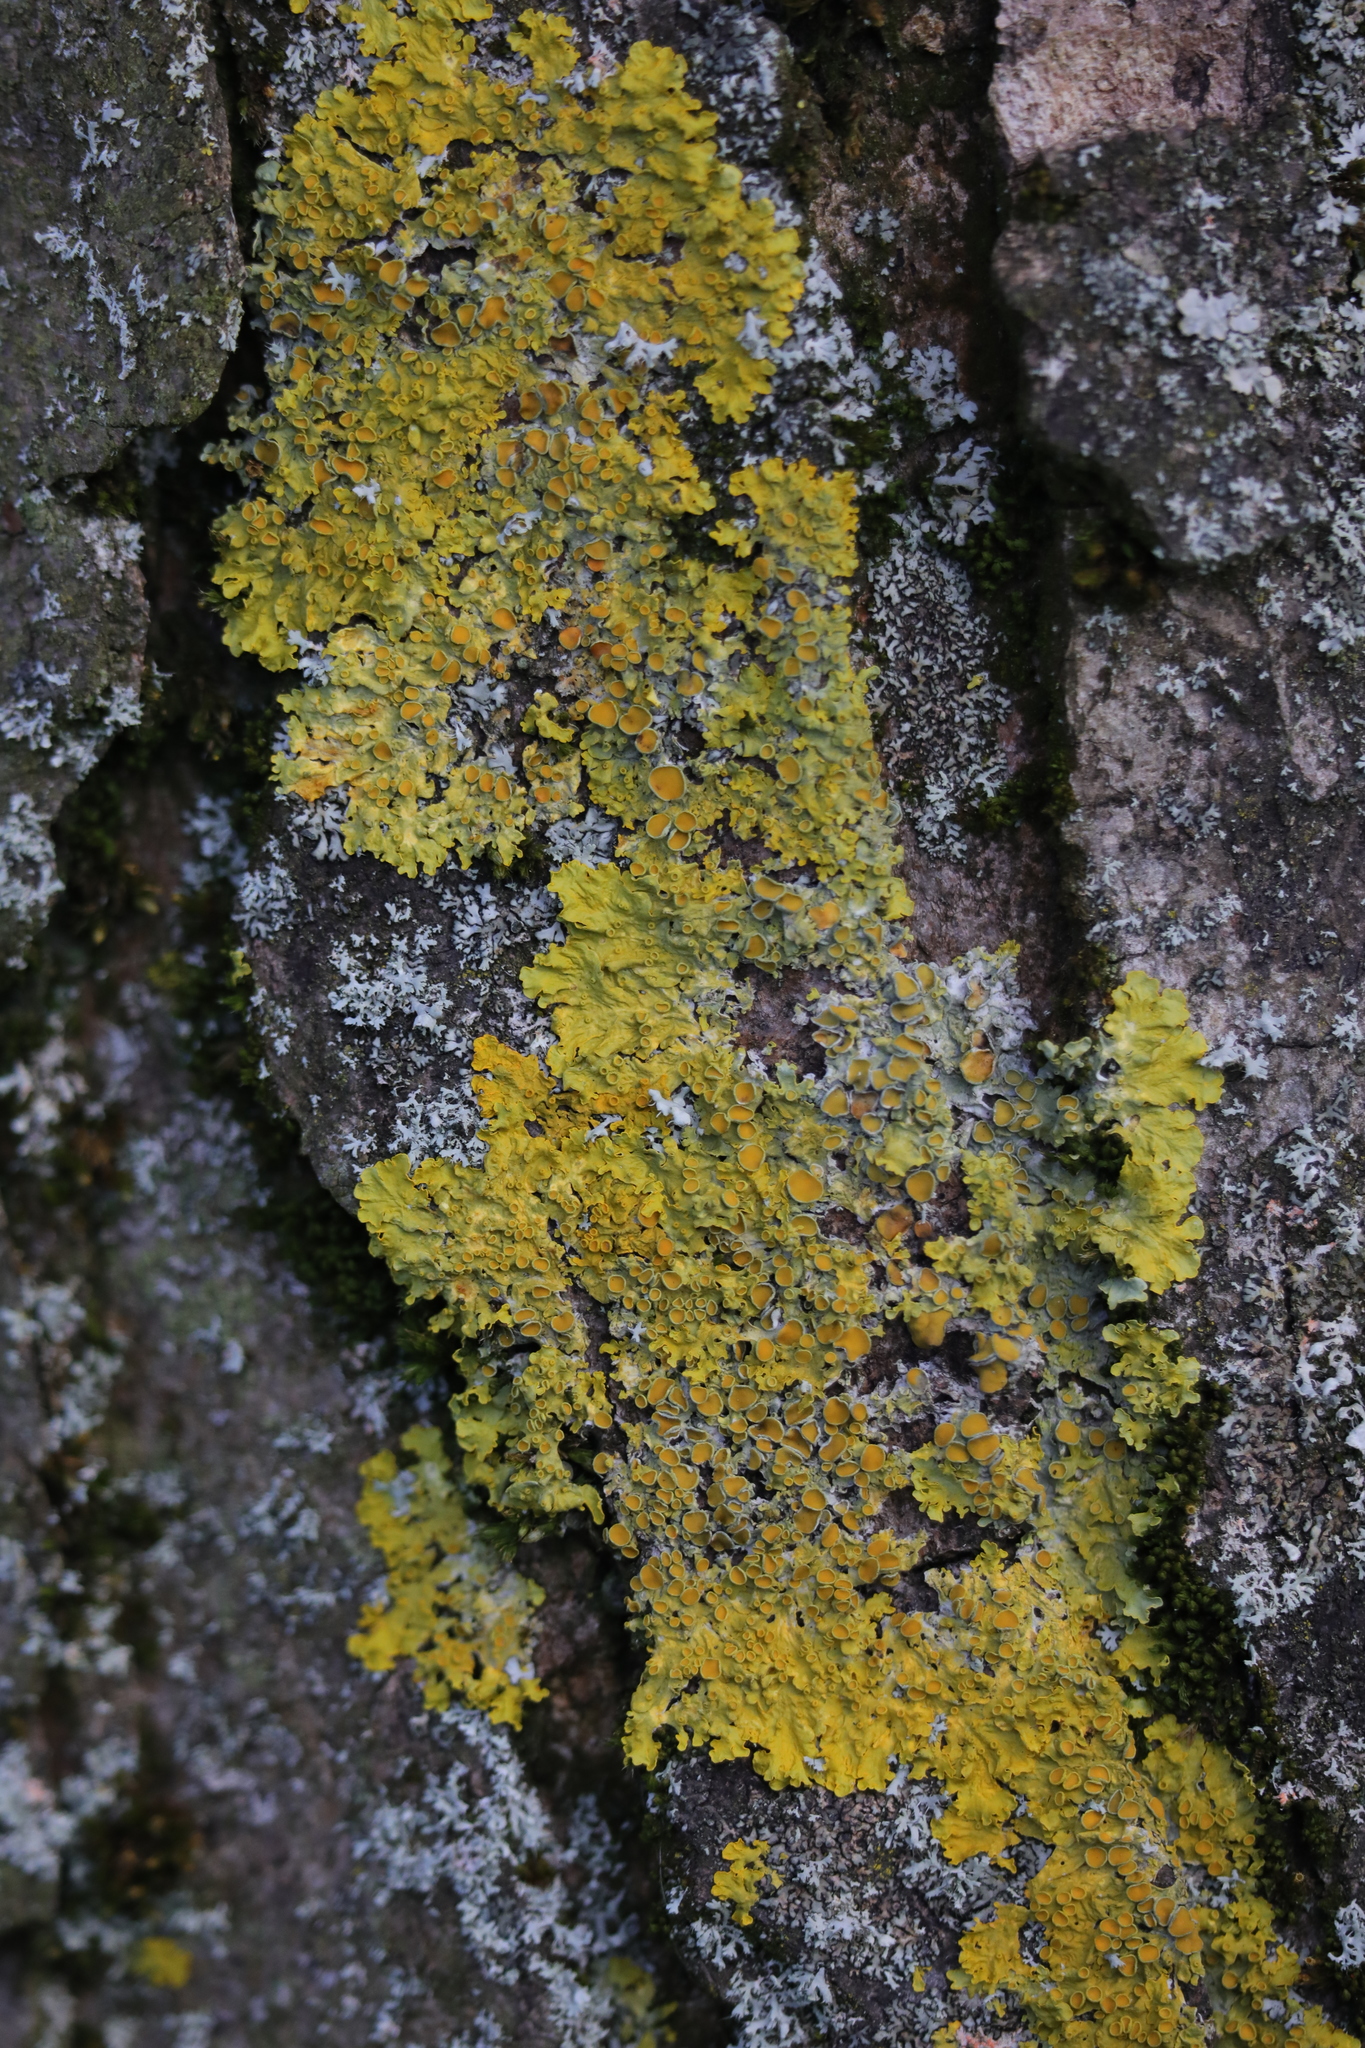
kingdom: Fungi
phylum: Ascomycota
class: Lecanoromycetes
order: Teloschistales
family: Teloschistaceae
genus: Xanthoria
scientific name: Xanthoria parietina
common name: Common orange lichen
